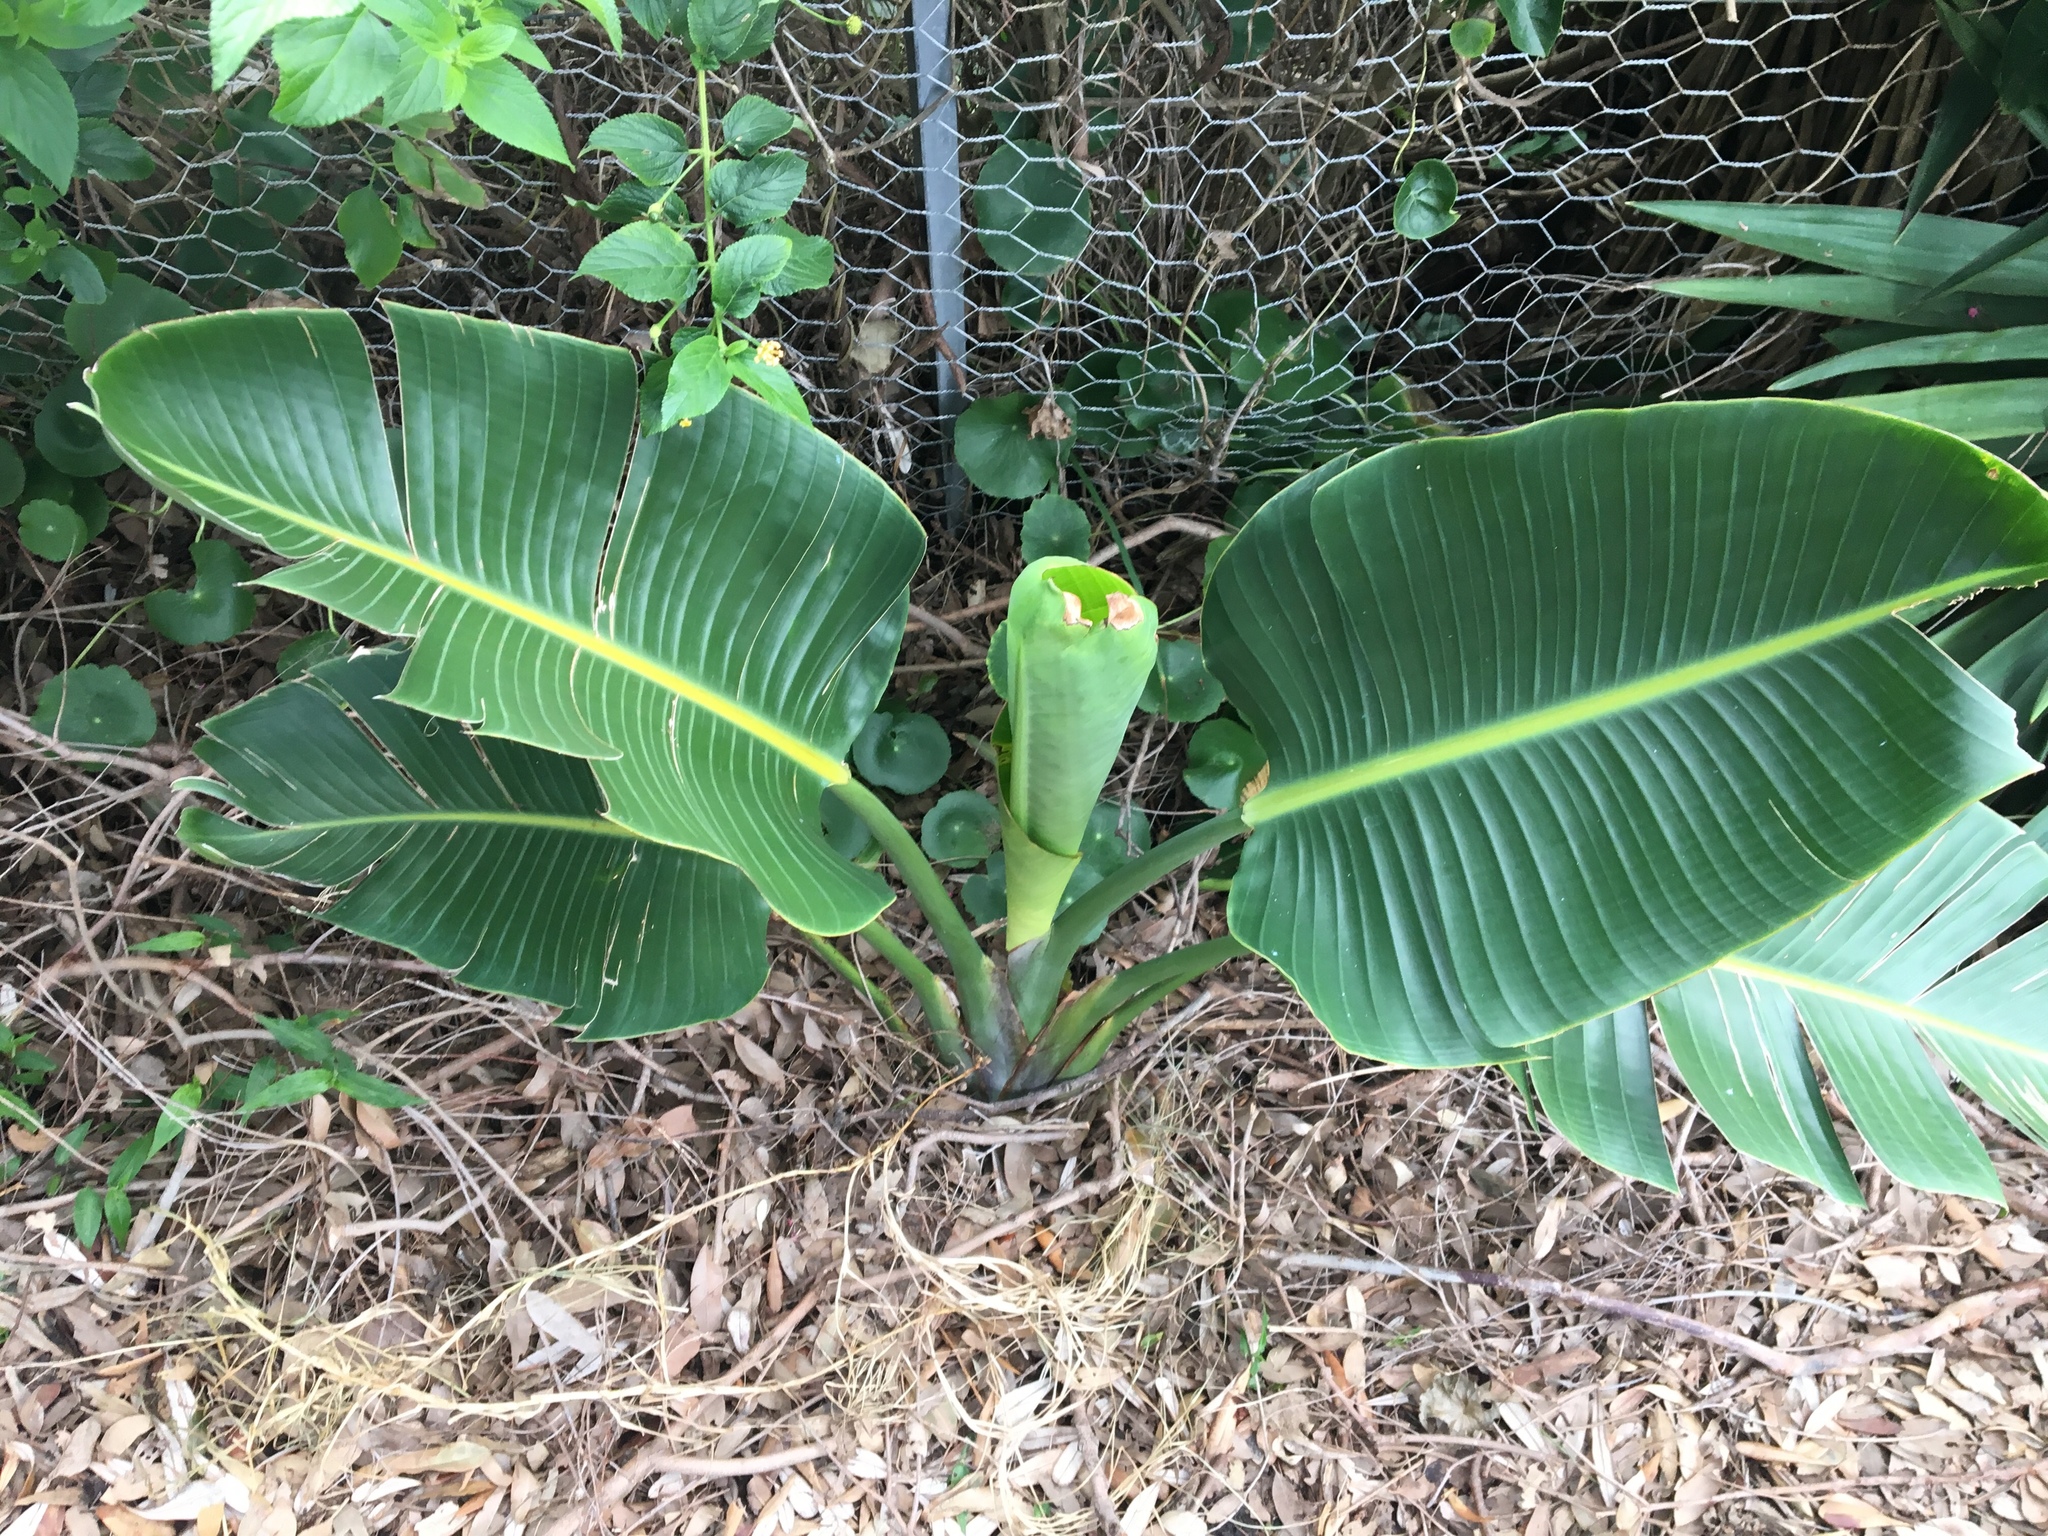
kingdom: Plantae
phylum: Tracheophyta
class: Liliopsida
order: Zingiberales
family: Strelitziaceae
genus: Strelitzia
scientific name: Strelitzia nicolai
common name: Bird-of-paradise tree
